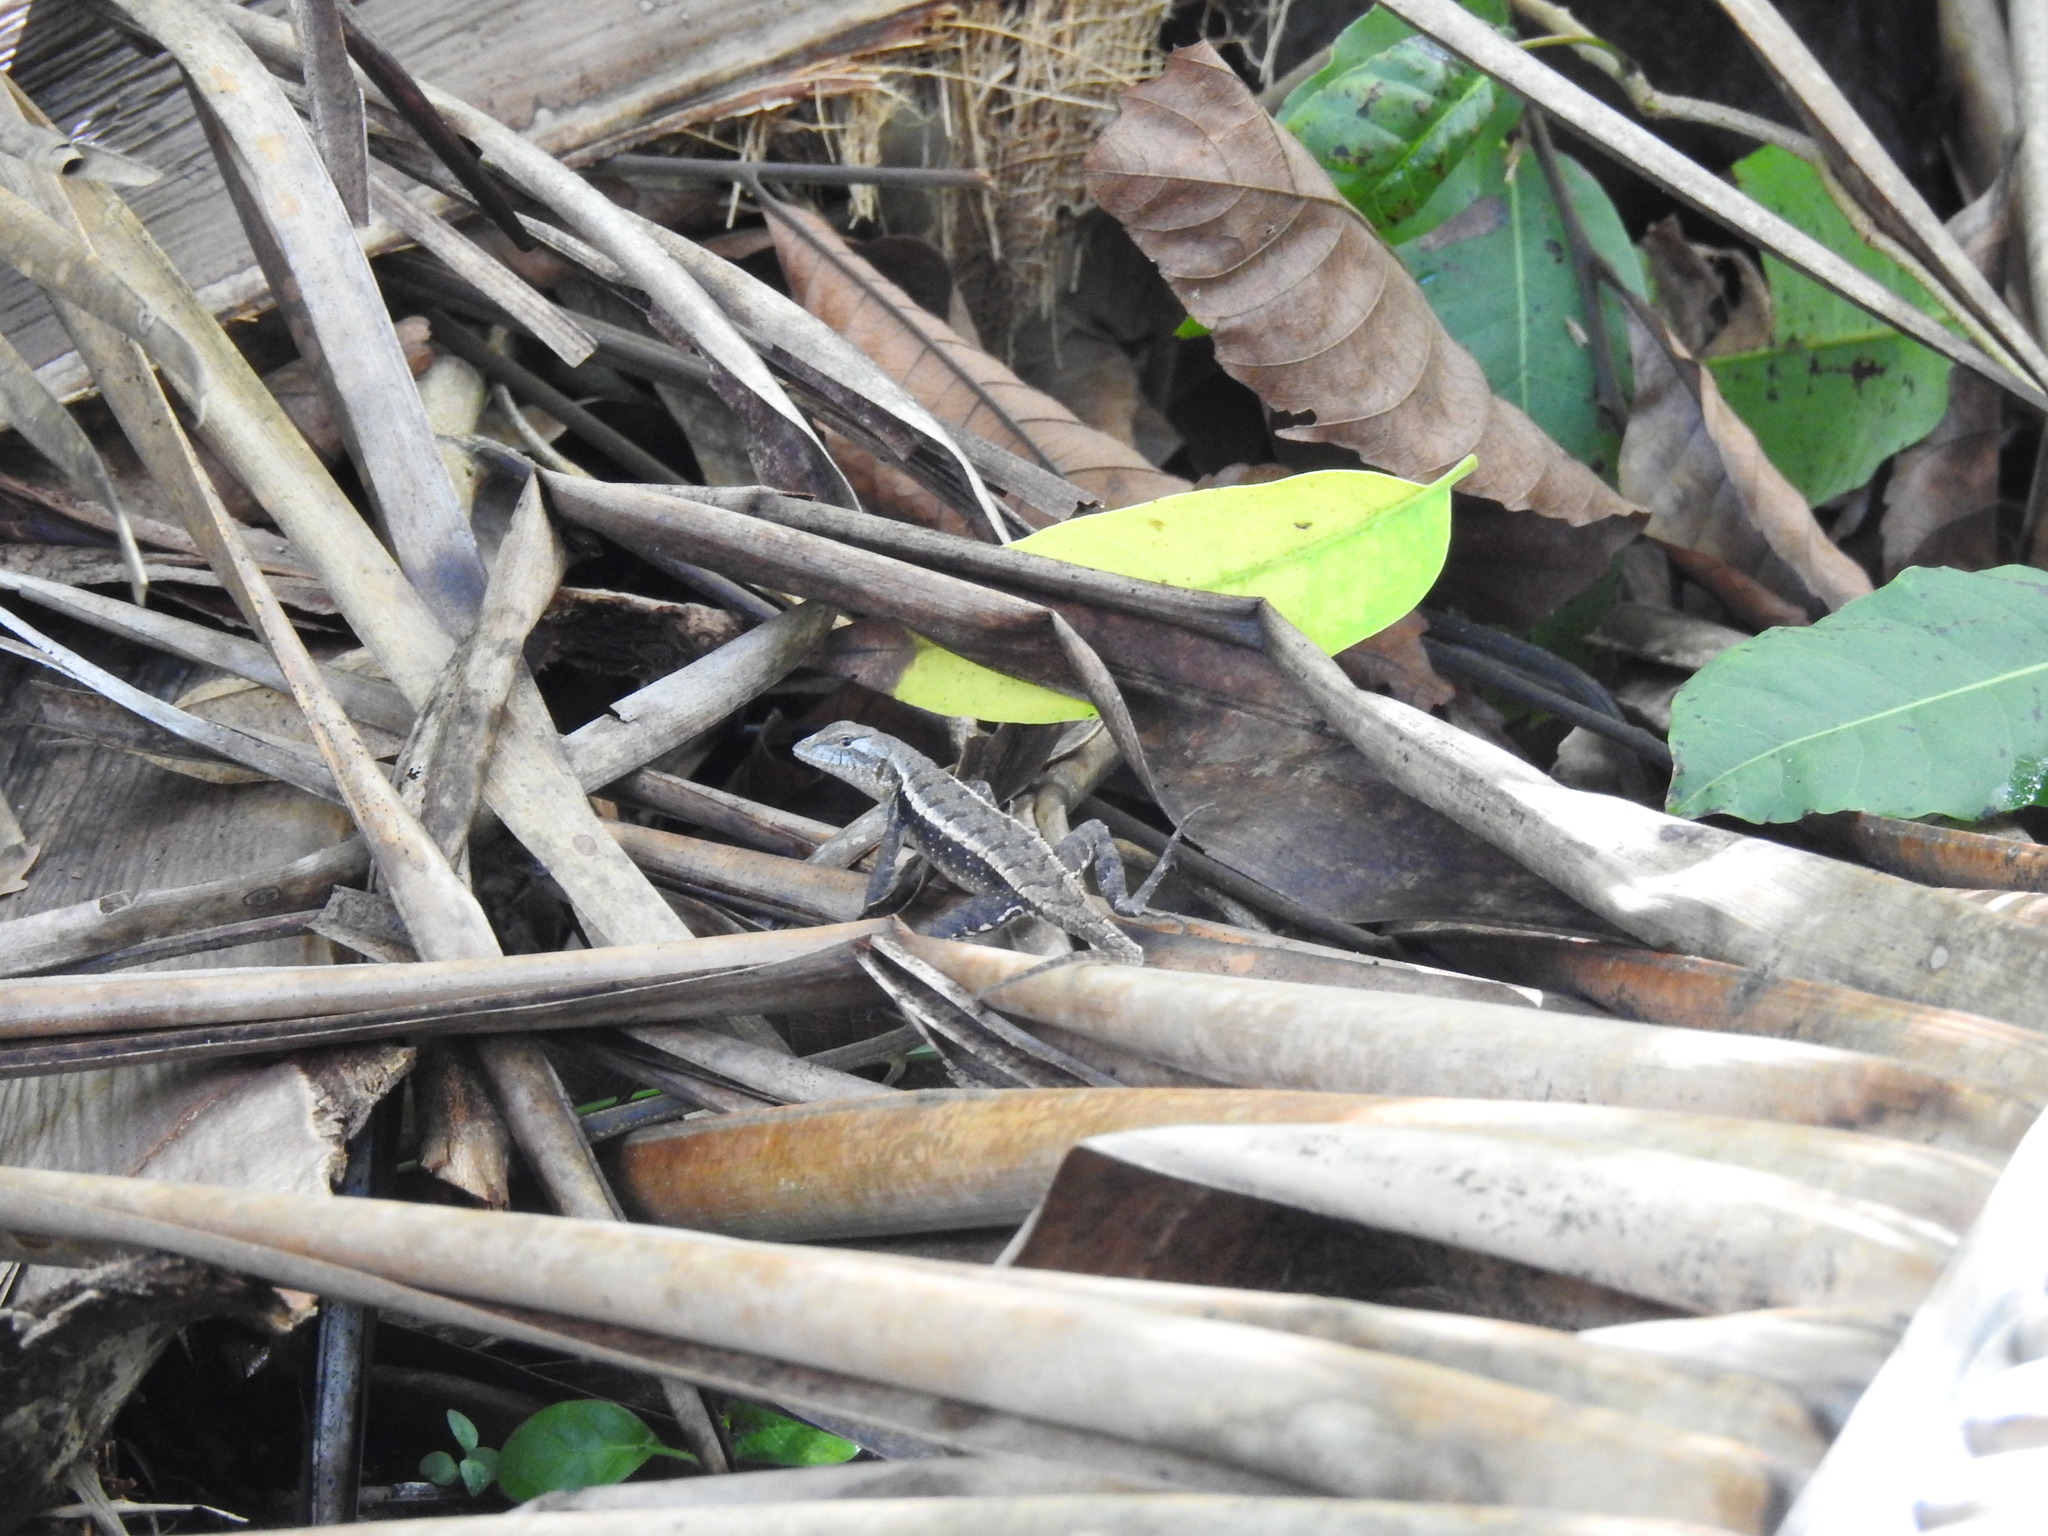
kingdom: Animalia
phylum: Chordata
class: Squamata
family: Phrynosomatidae
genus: Sceloporus
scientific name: Sceloporus chrysostictus
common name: Yellow-spotted spiny lizard
